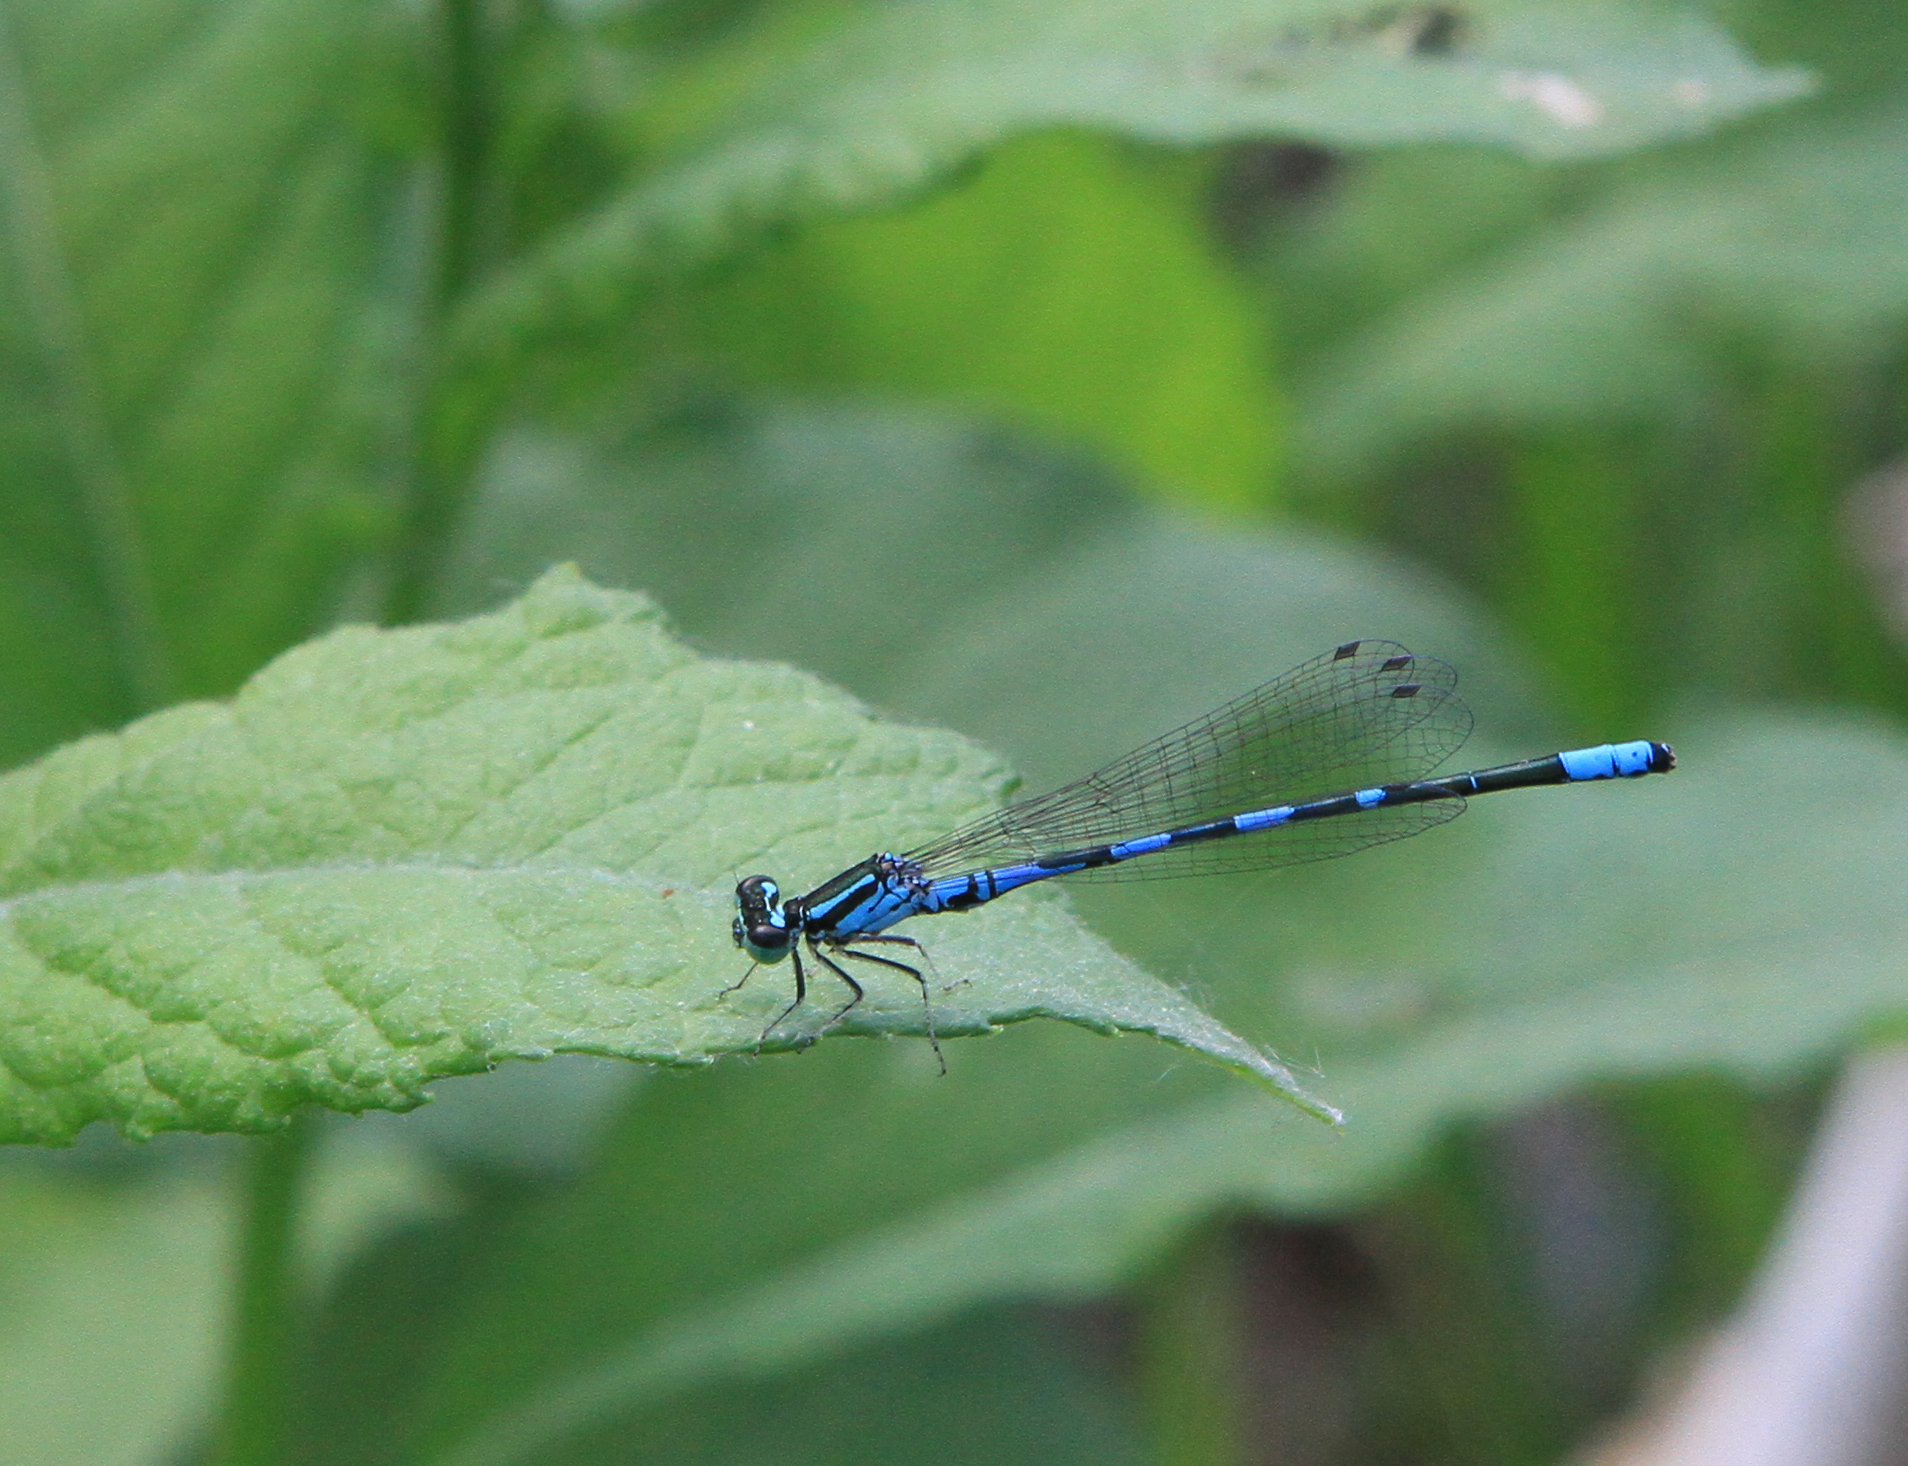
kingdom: Animalia
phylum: Arthropoda
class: Insecta
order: Odonata
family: Coenagrionidae
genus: Coenagrion
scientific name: Coenagrion johanssoni
